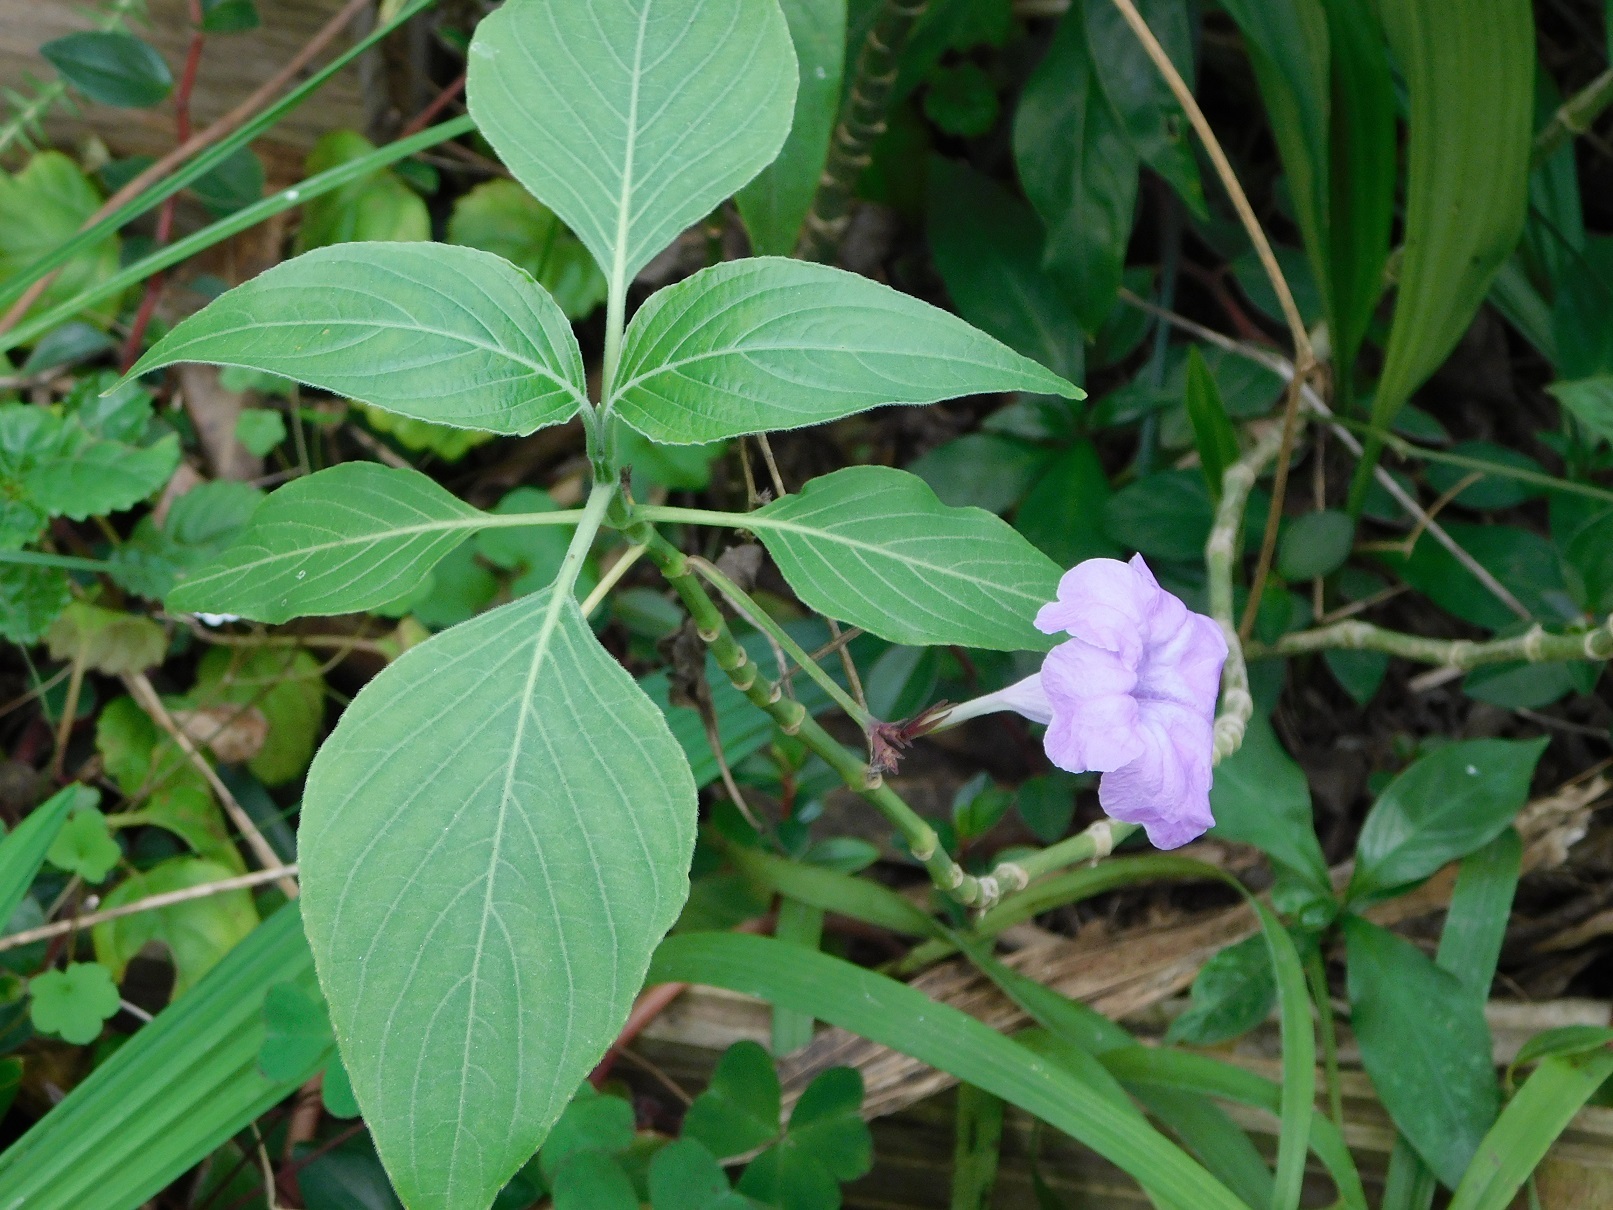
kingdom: Plantae
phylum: Tracheophyta
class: Magnoliopsida
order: Lamiales
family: Acanthaceae
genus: Ruellia
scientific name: Ruellia breedlovei
